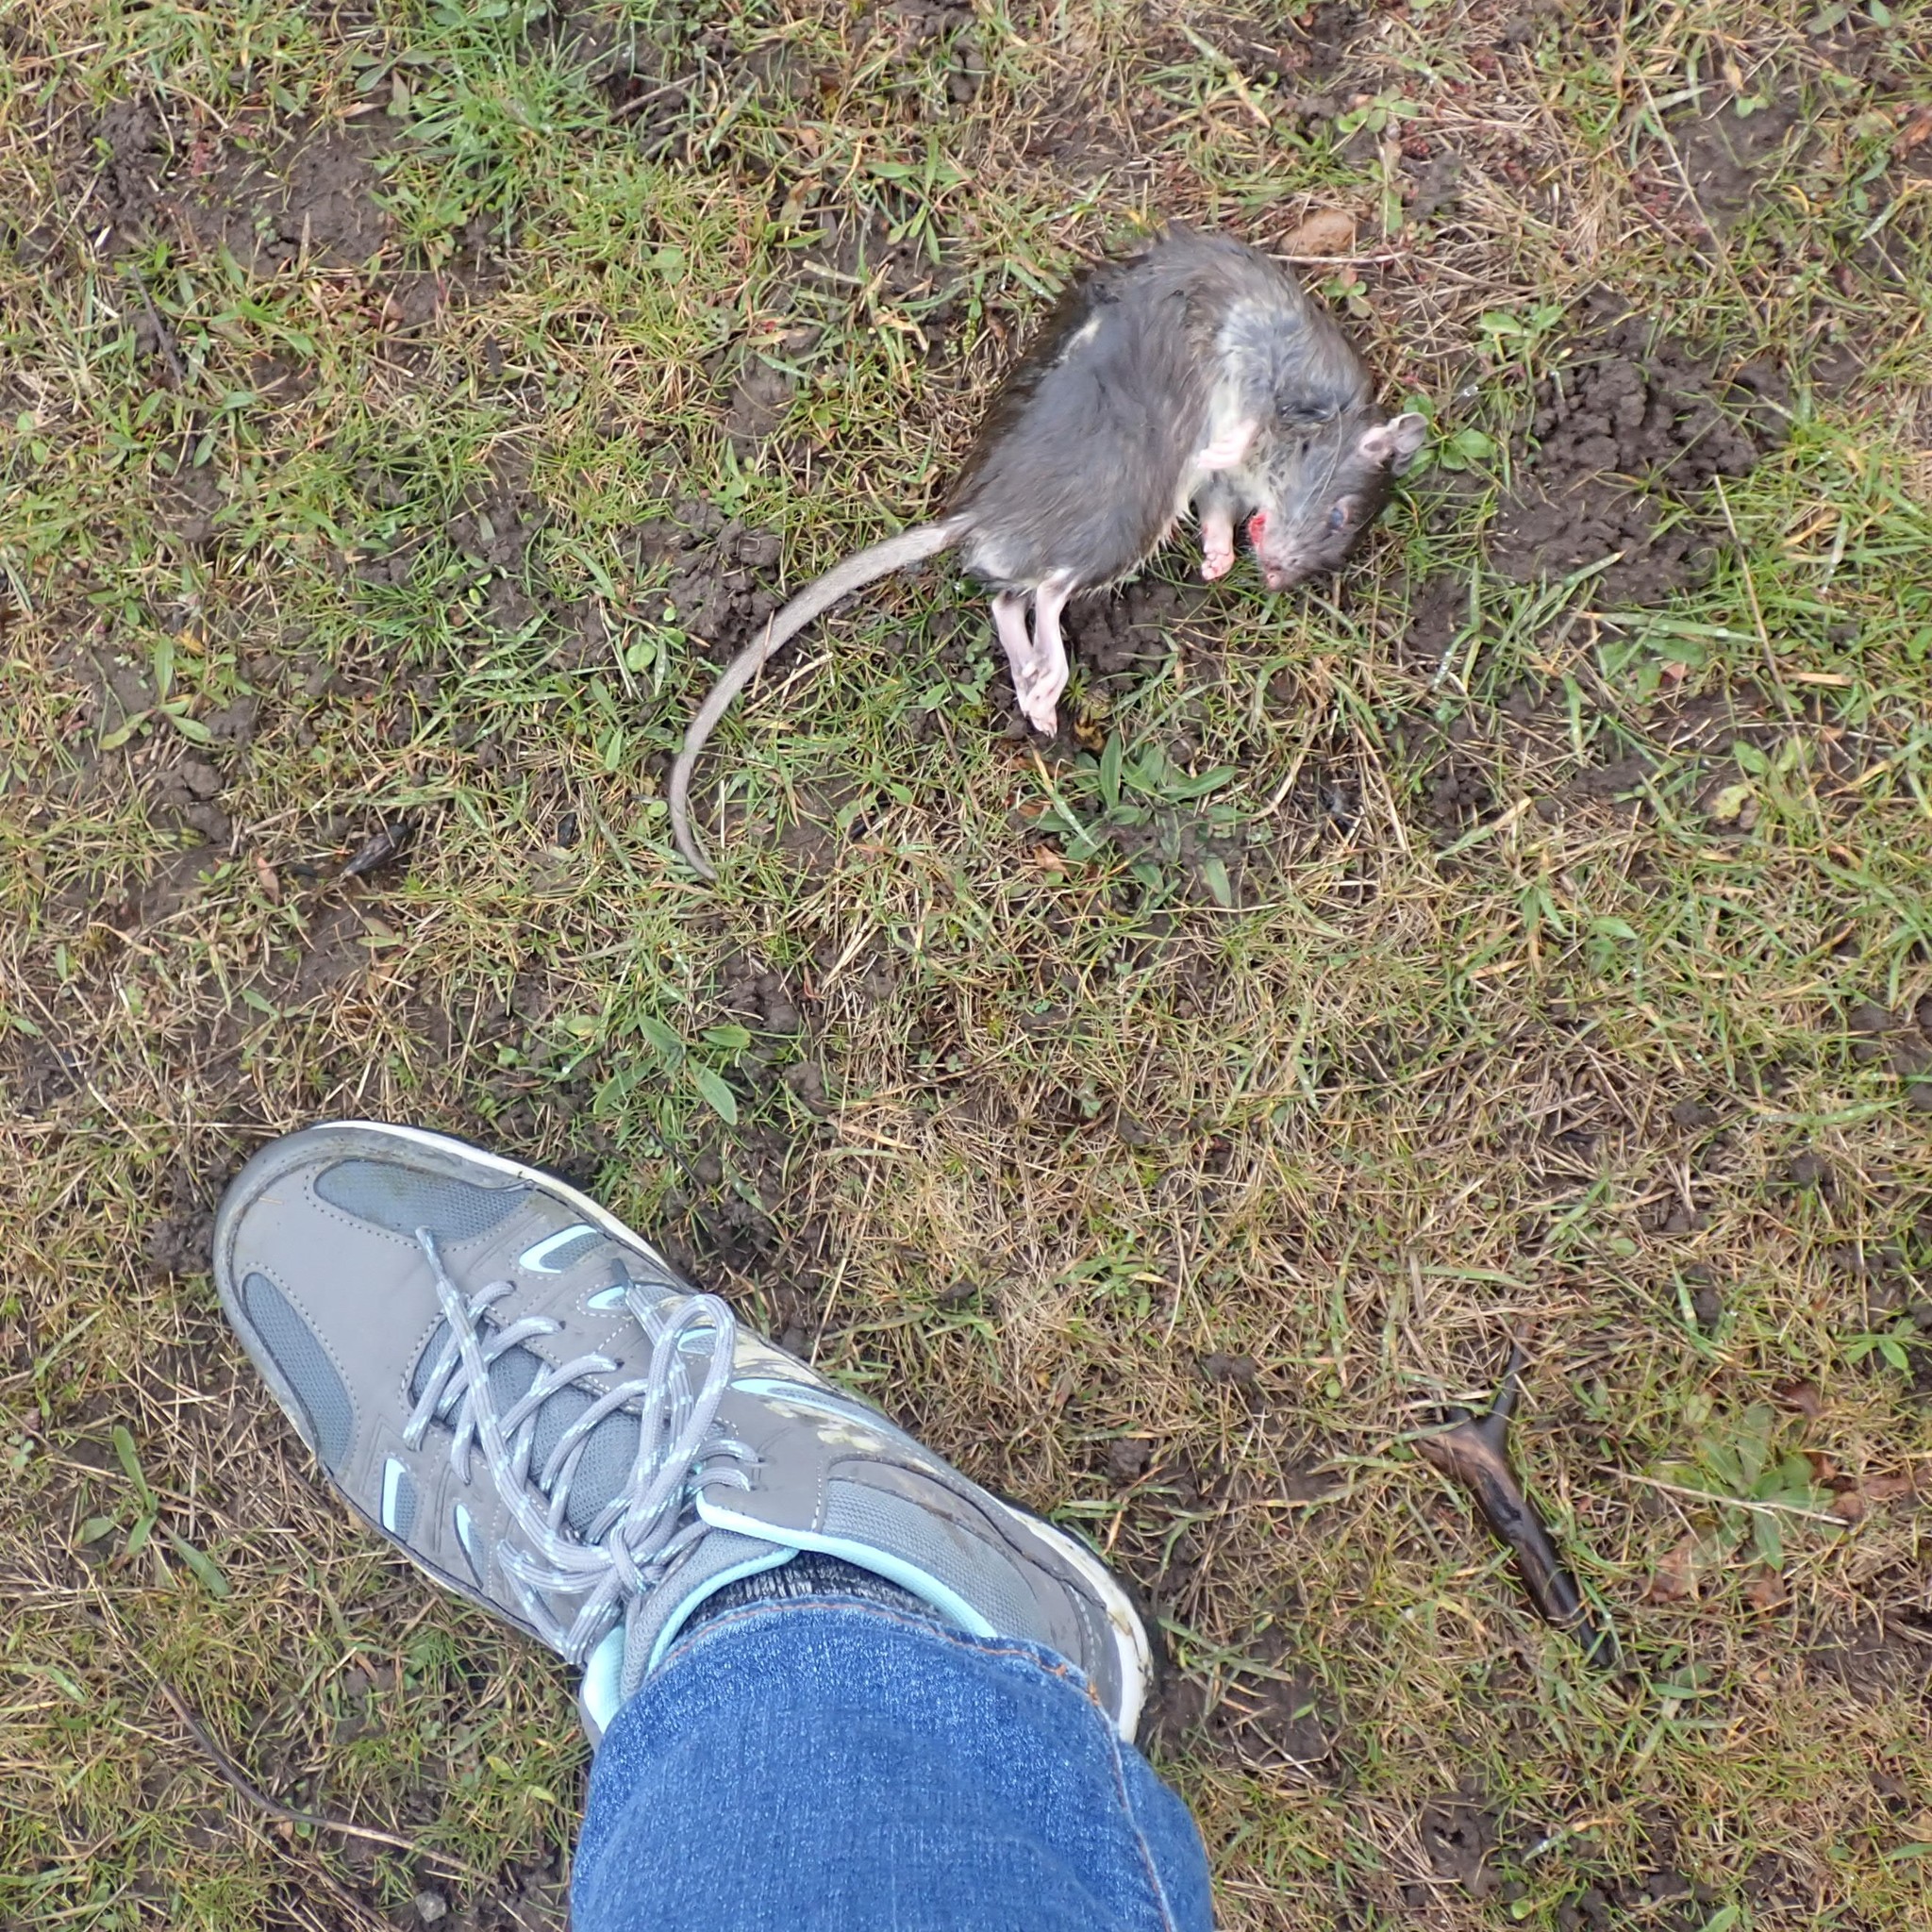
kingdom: Animalia
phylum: Chordata
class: Mammalia
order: Rodentia
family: Muridae
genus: Rattus
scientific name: Rattus norvegicus
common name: Brown rat
